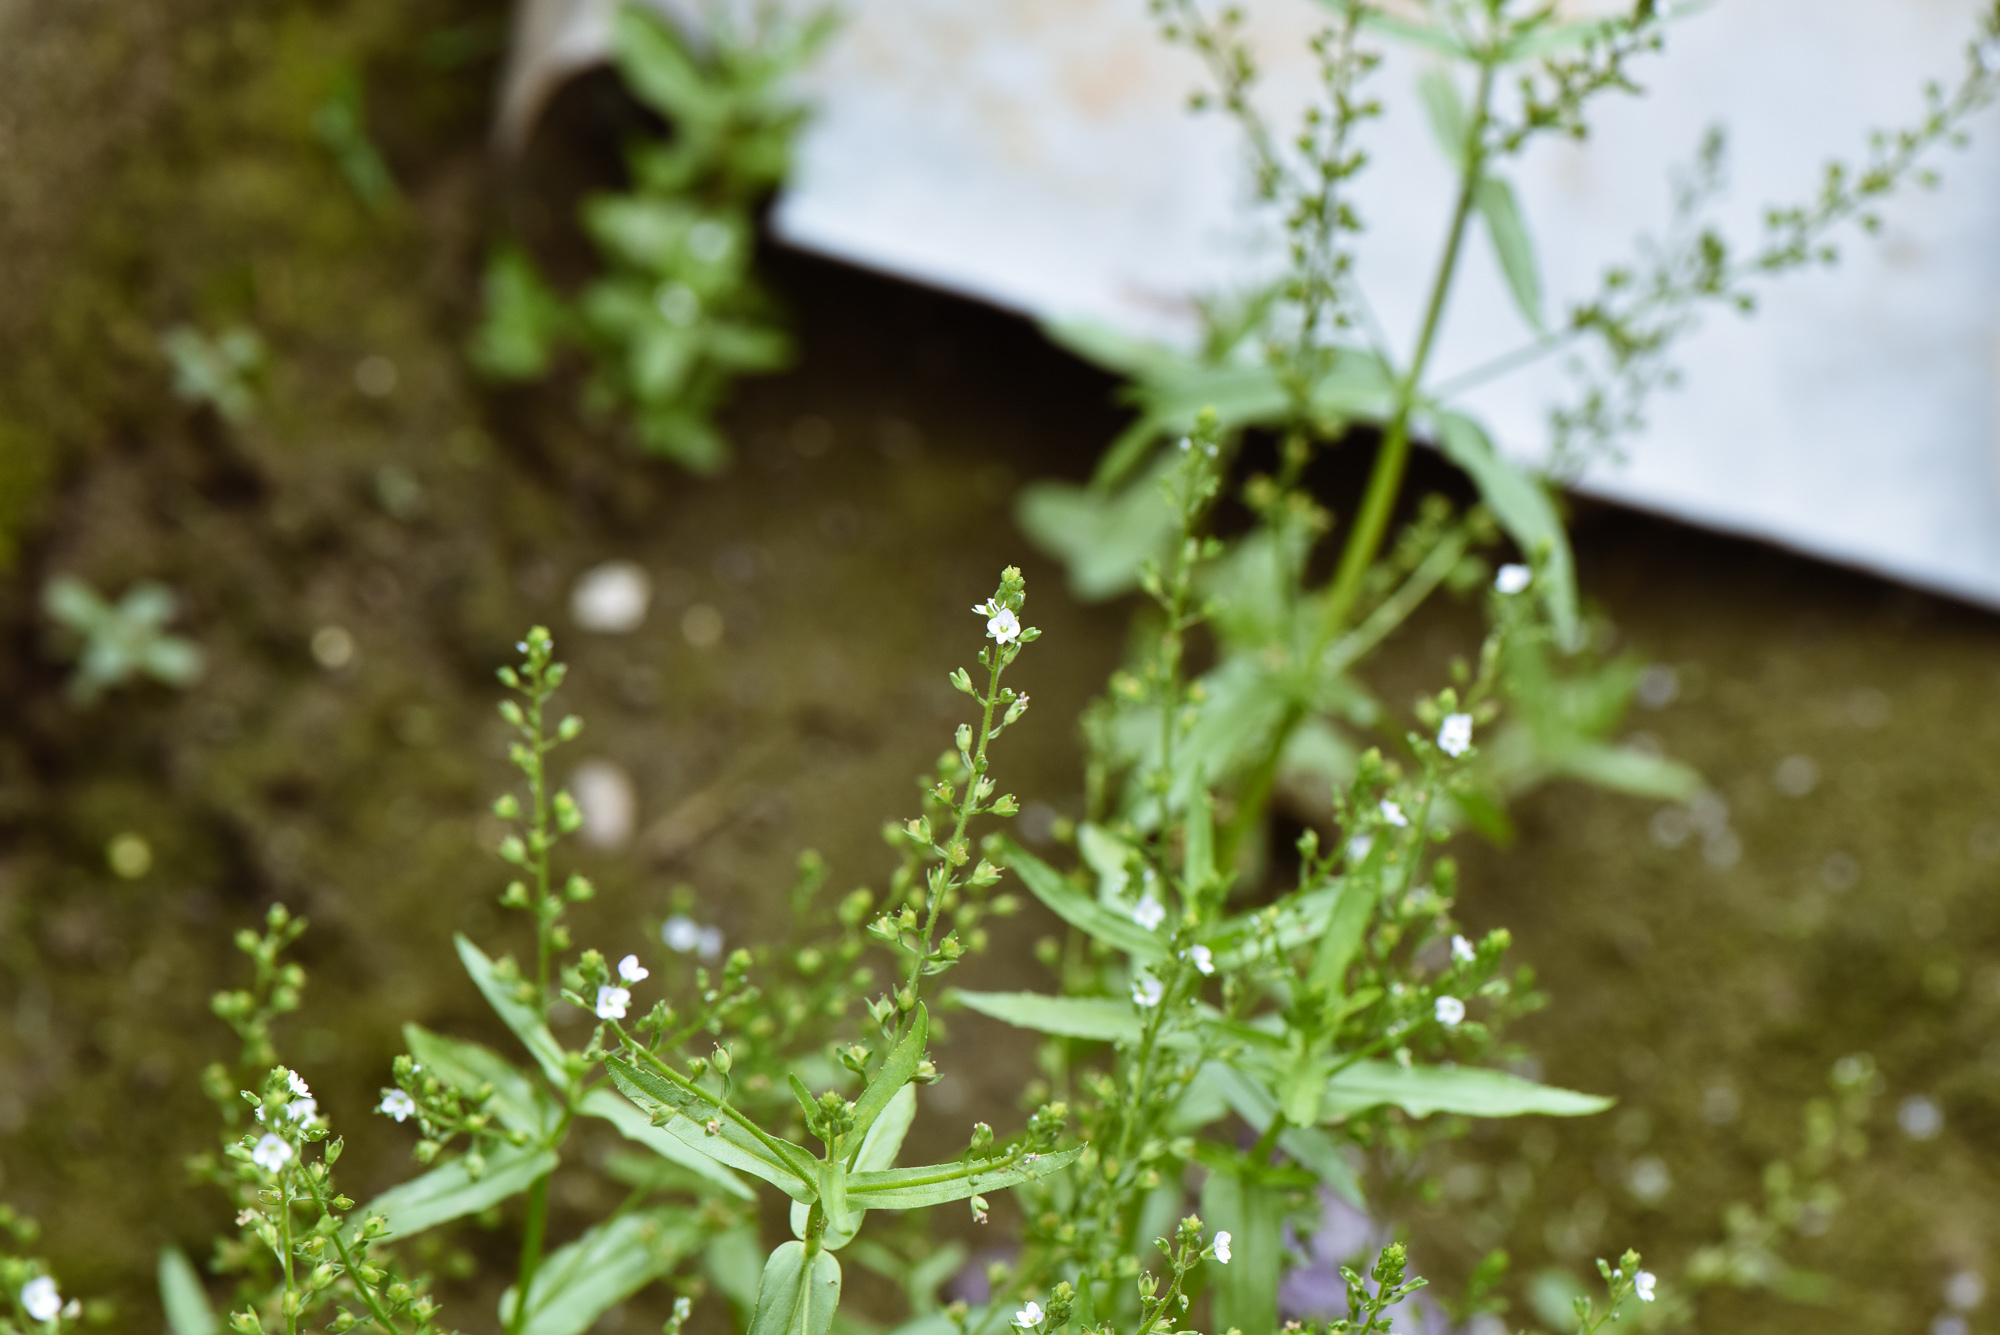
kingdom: Plantae
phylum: Tracheophyta
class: Magnoliopsida
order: Lamiales
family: Plantaginaceae
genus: Veronica
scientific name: Veronica undulata
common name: Undulate speedwell
